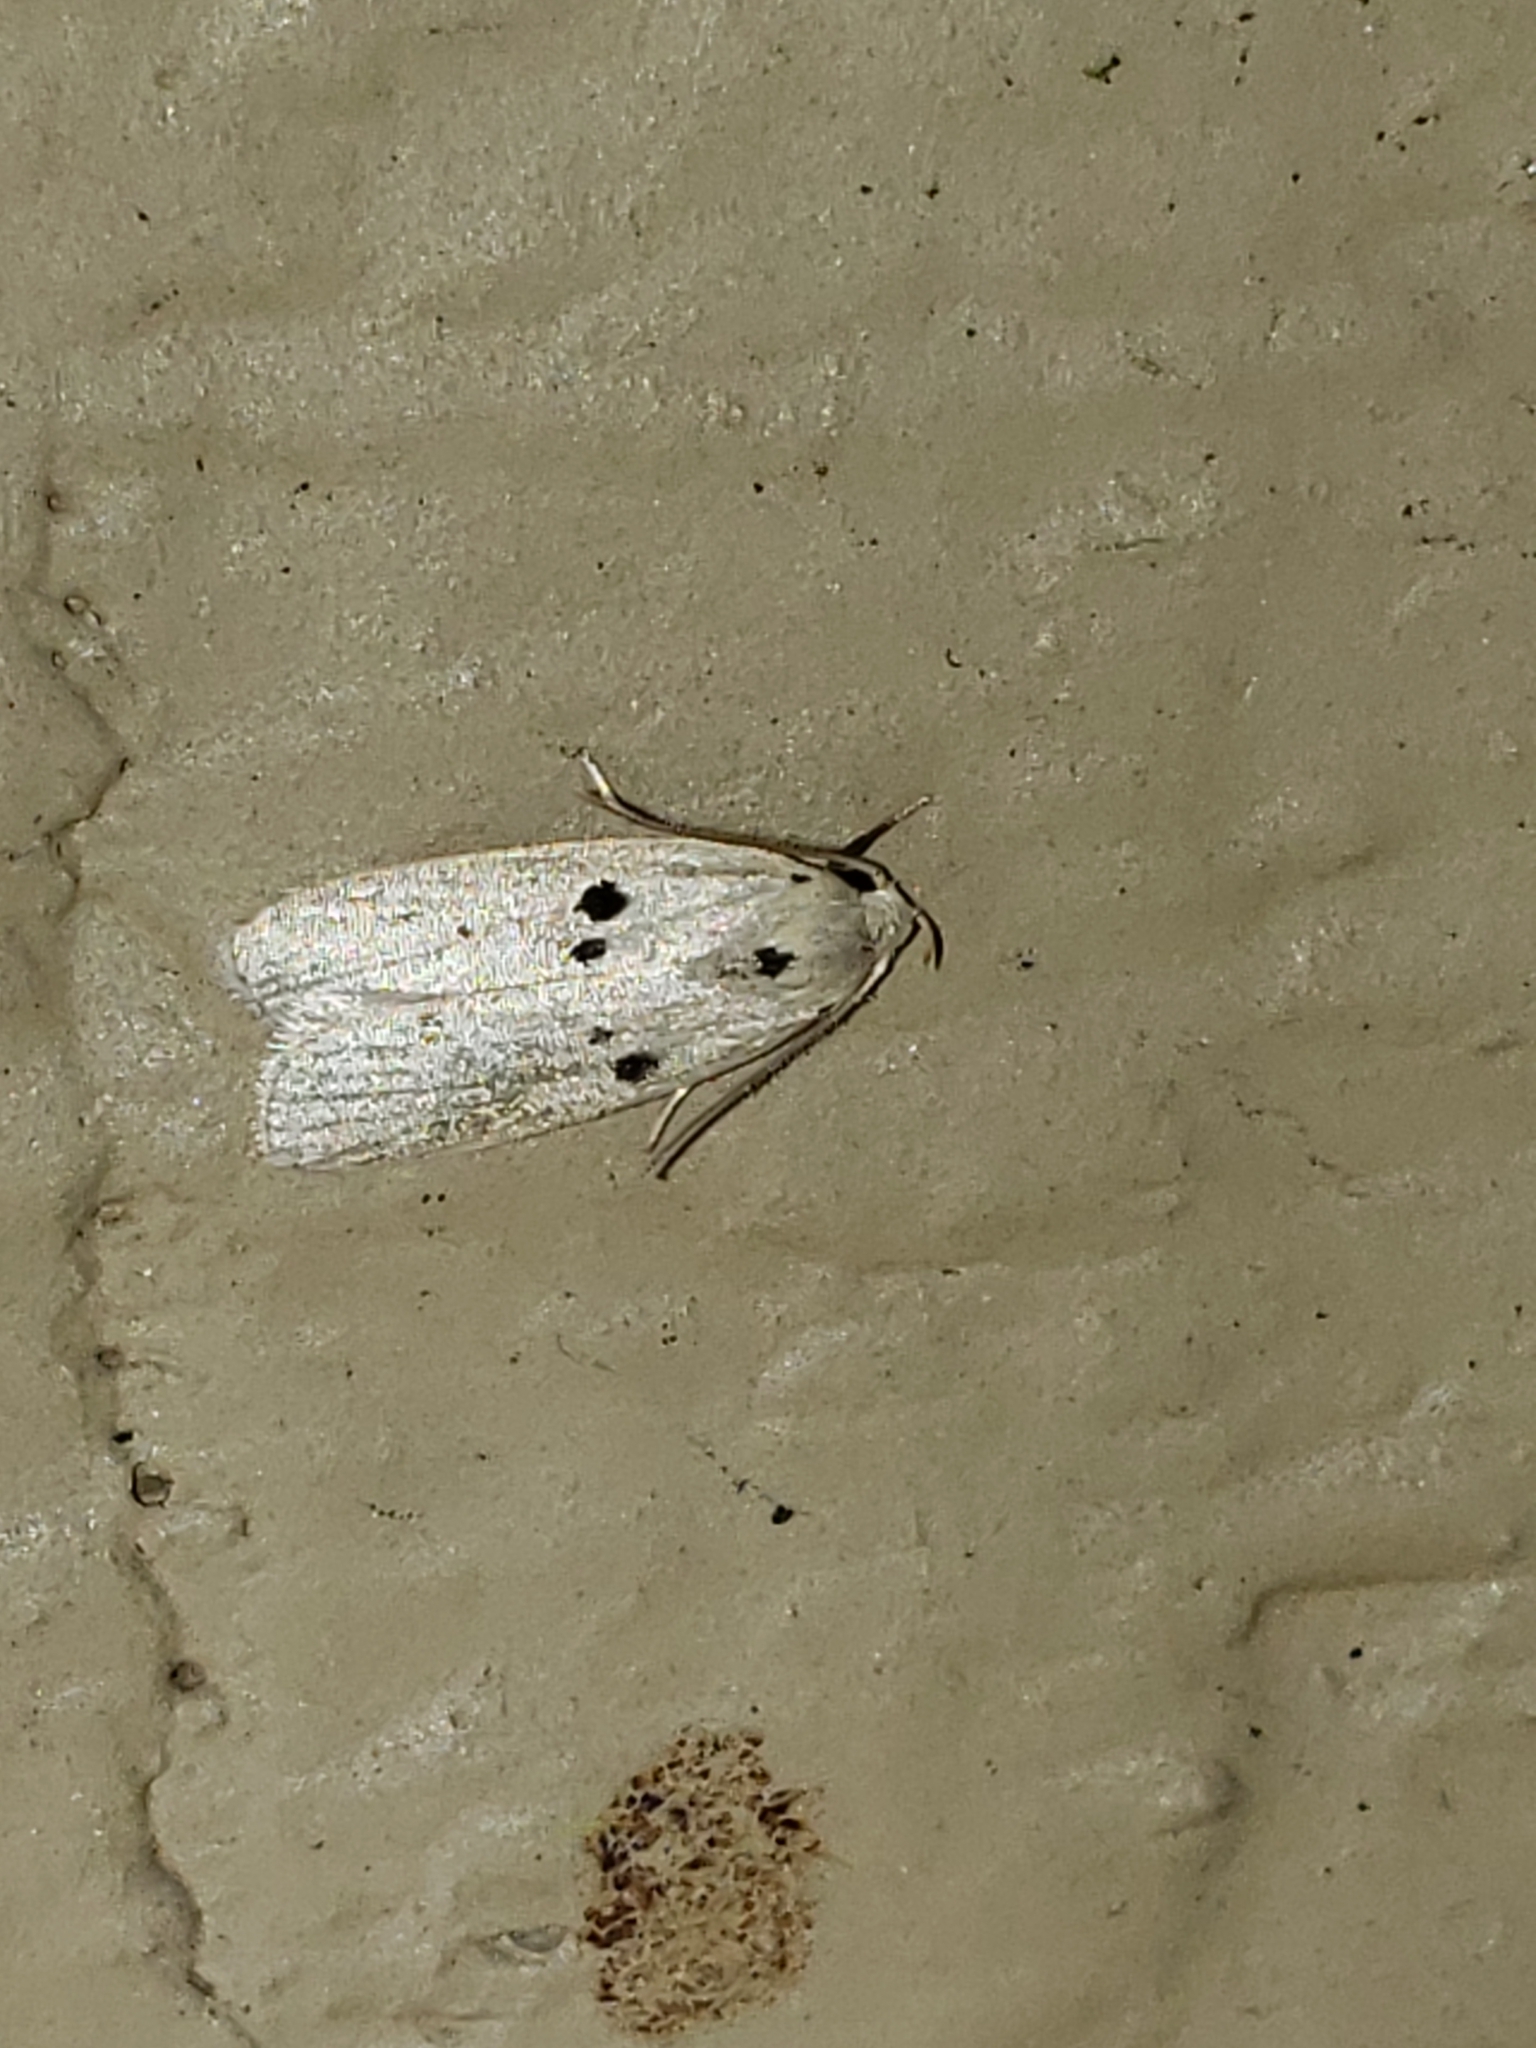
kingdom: Animalia
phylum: Arthropoda
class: Insecta
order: Lepidoptera
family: Peleopodidae
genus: Scythropiodes
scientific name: Scythropiodes issikii
